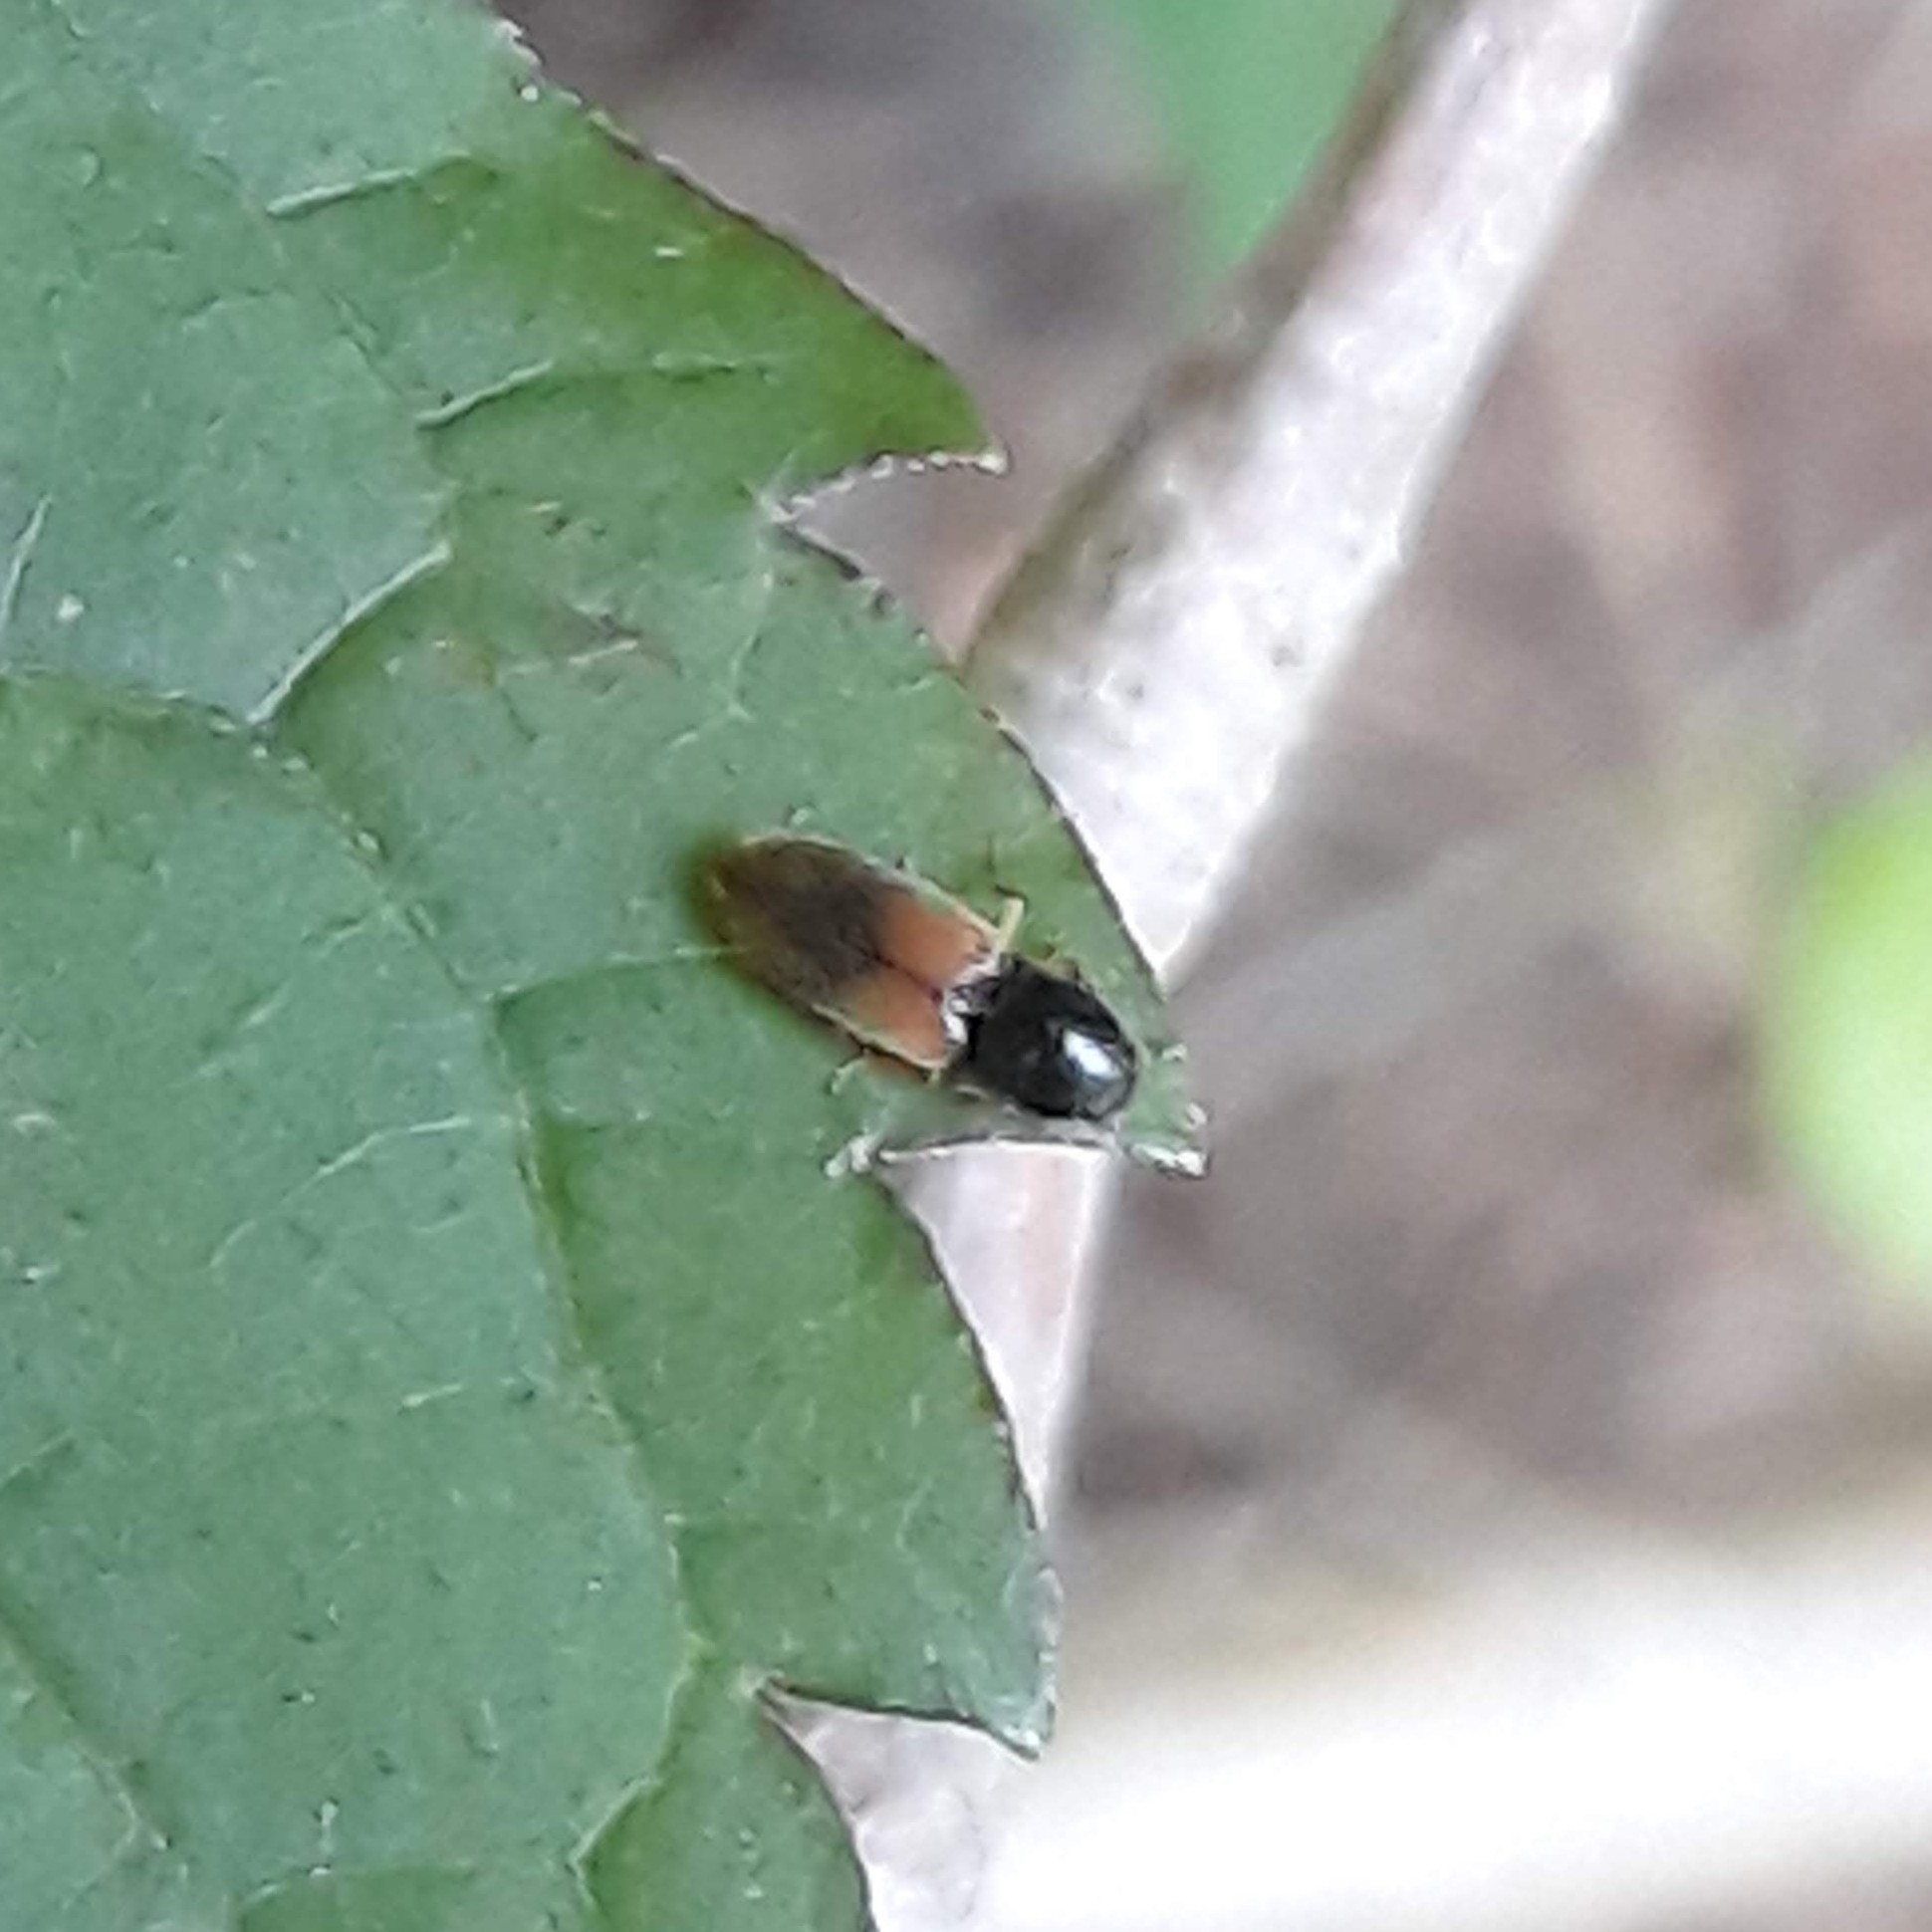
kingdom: Animalia
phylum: Arthropoda
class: Insecta
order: Coleoptera
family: Elateridae
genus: Horistonotus
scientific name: Horistonotus curiatus
